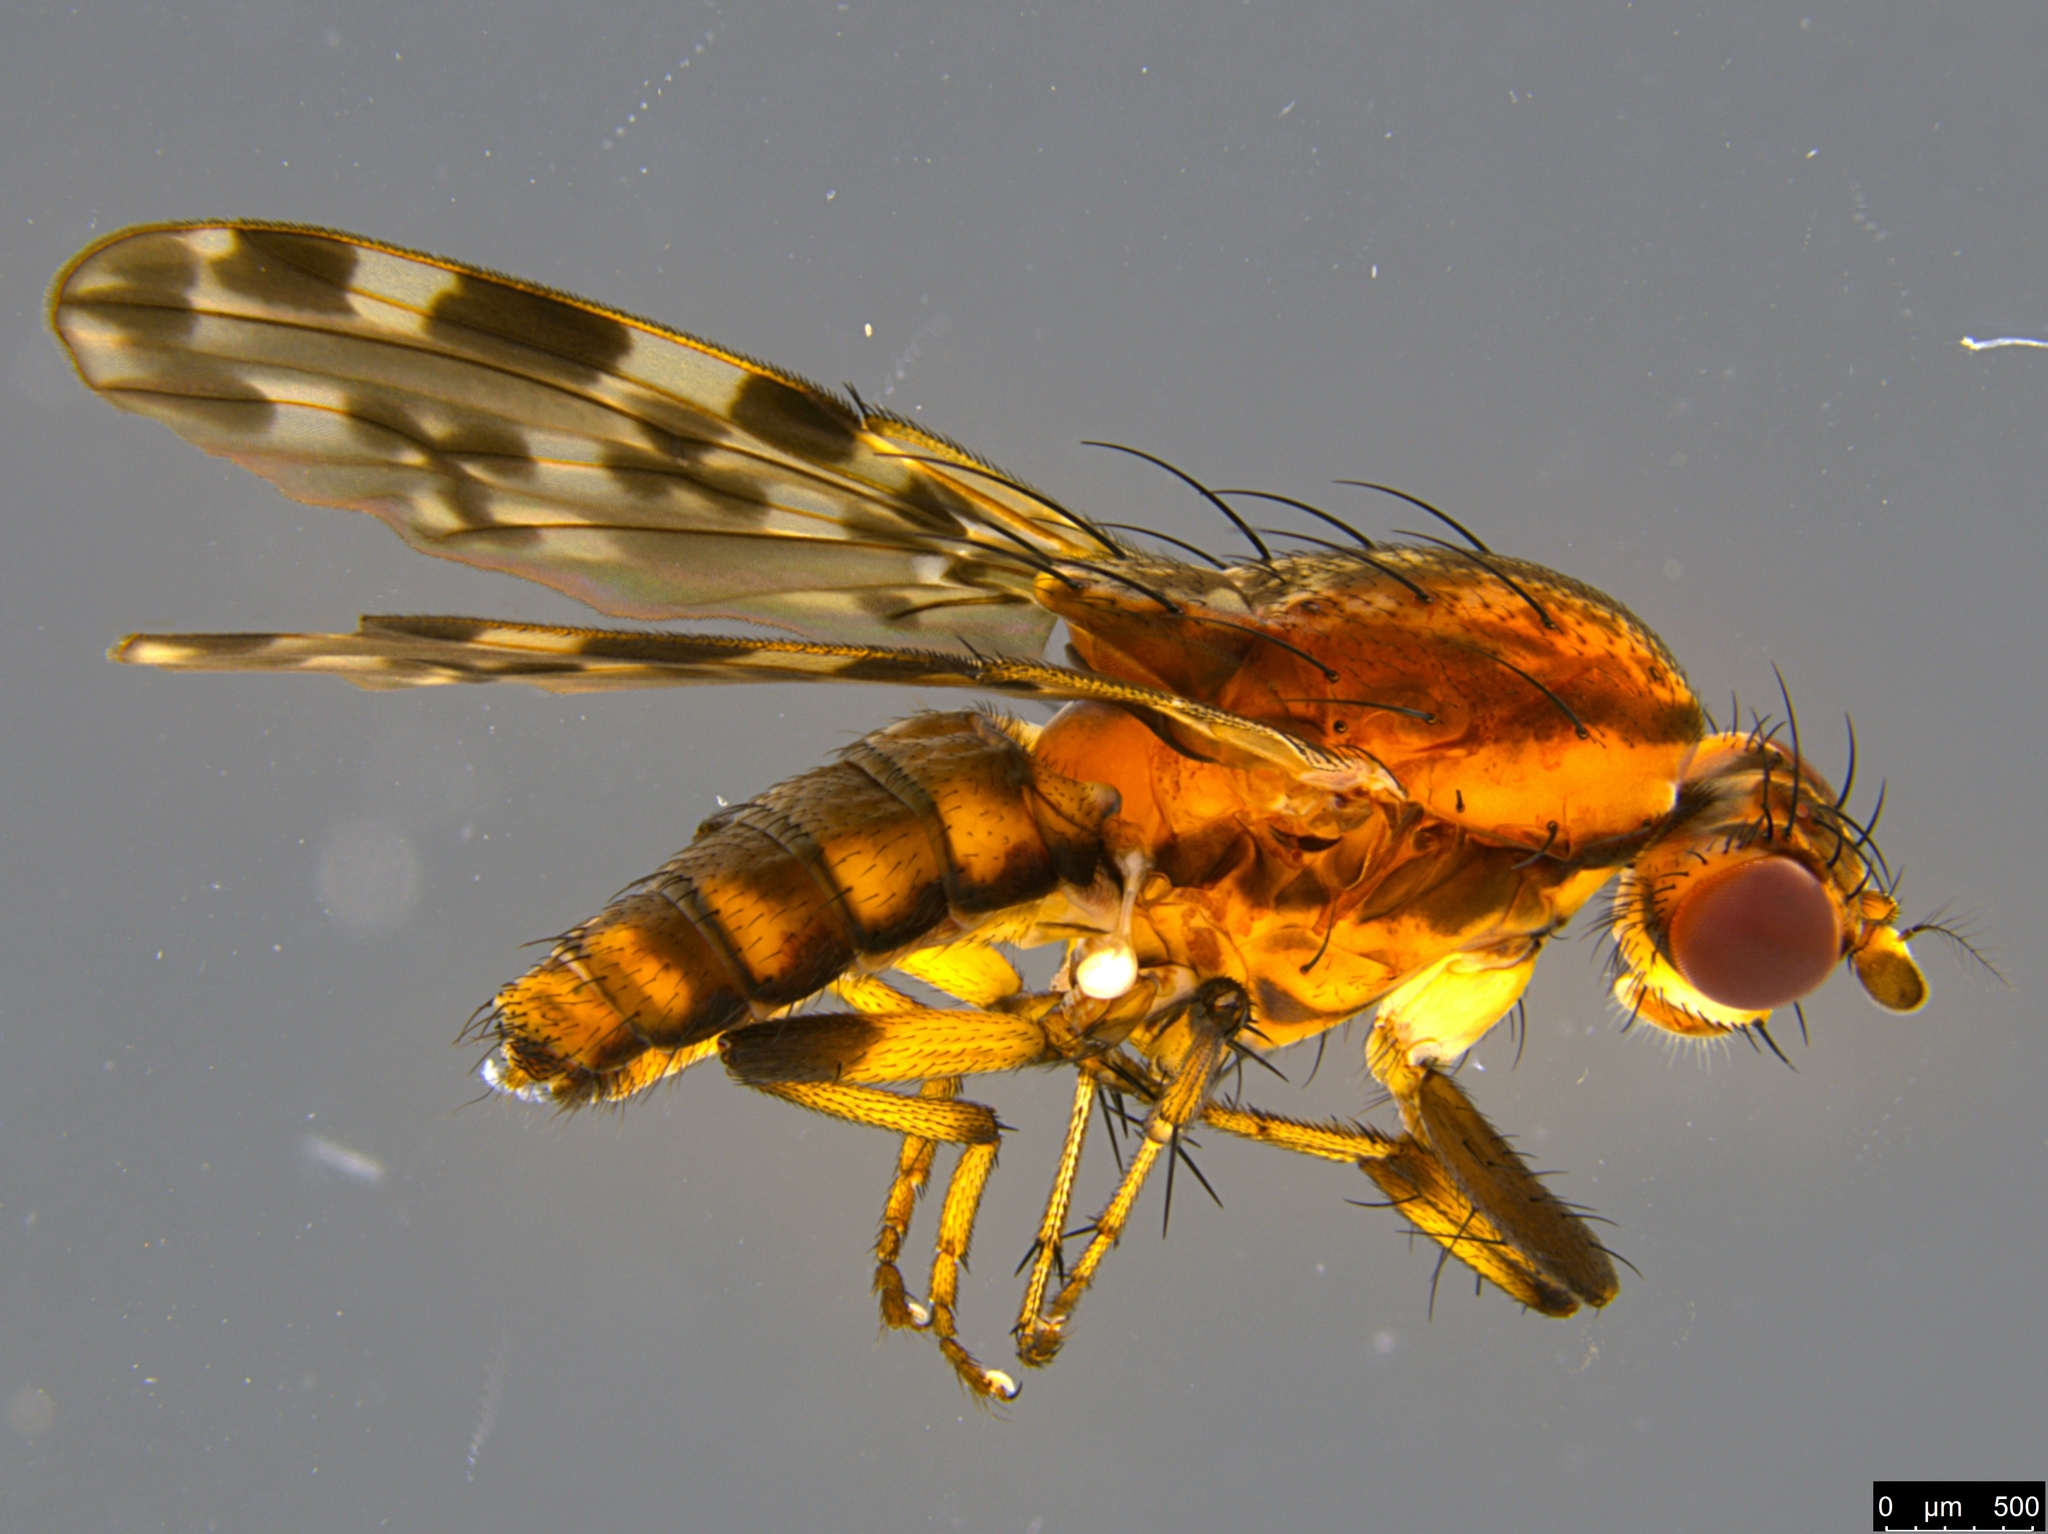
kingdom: Animalia
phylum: Arthropoda
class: Insecta
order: Diptera
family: Heleomyzidae
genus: Diplogeomyza
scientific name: Diplogeomyza maculipennis
